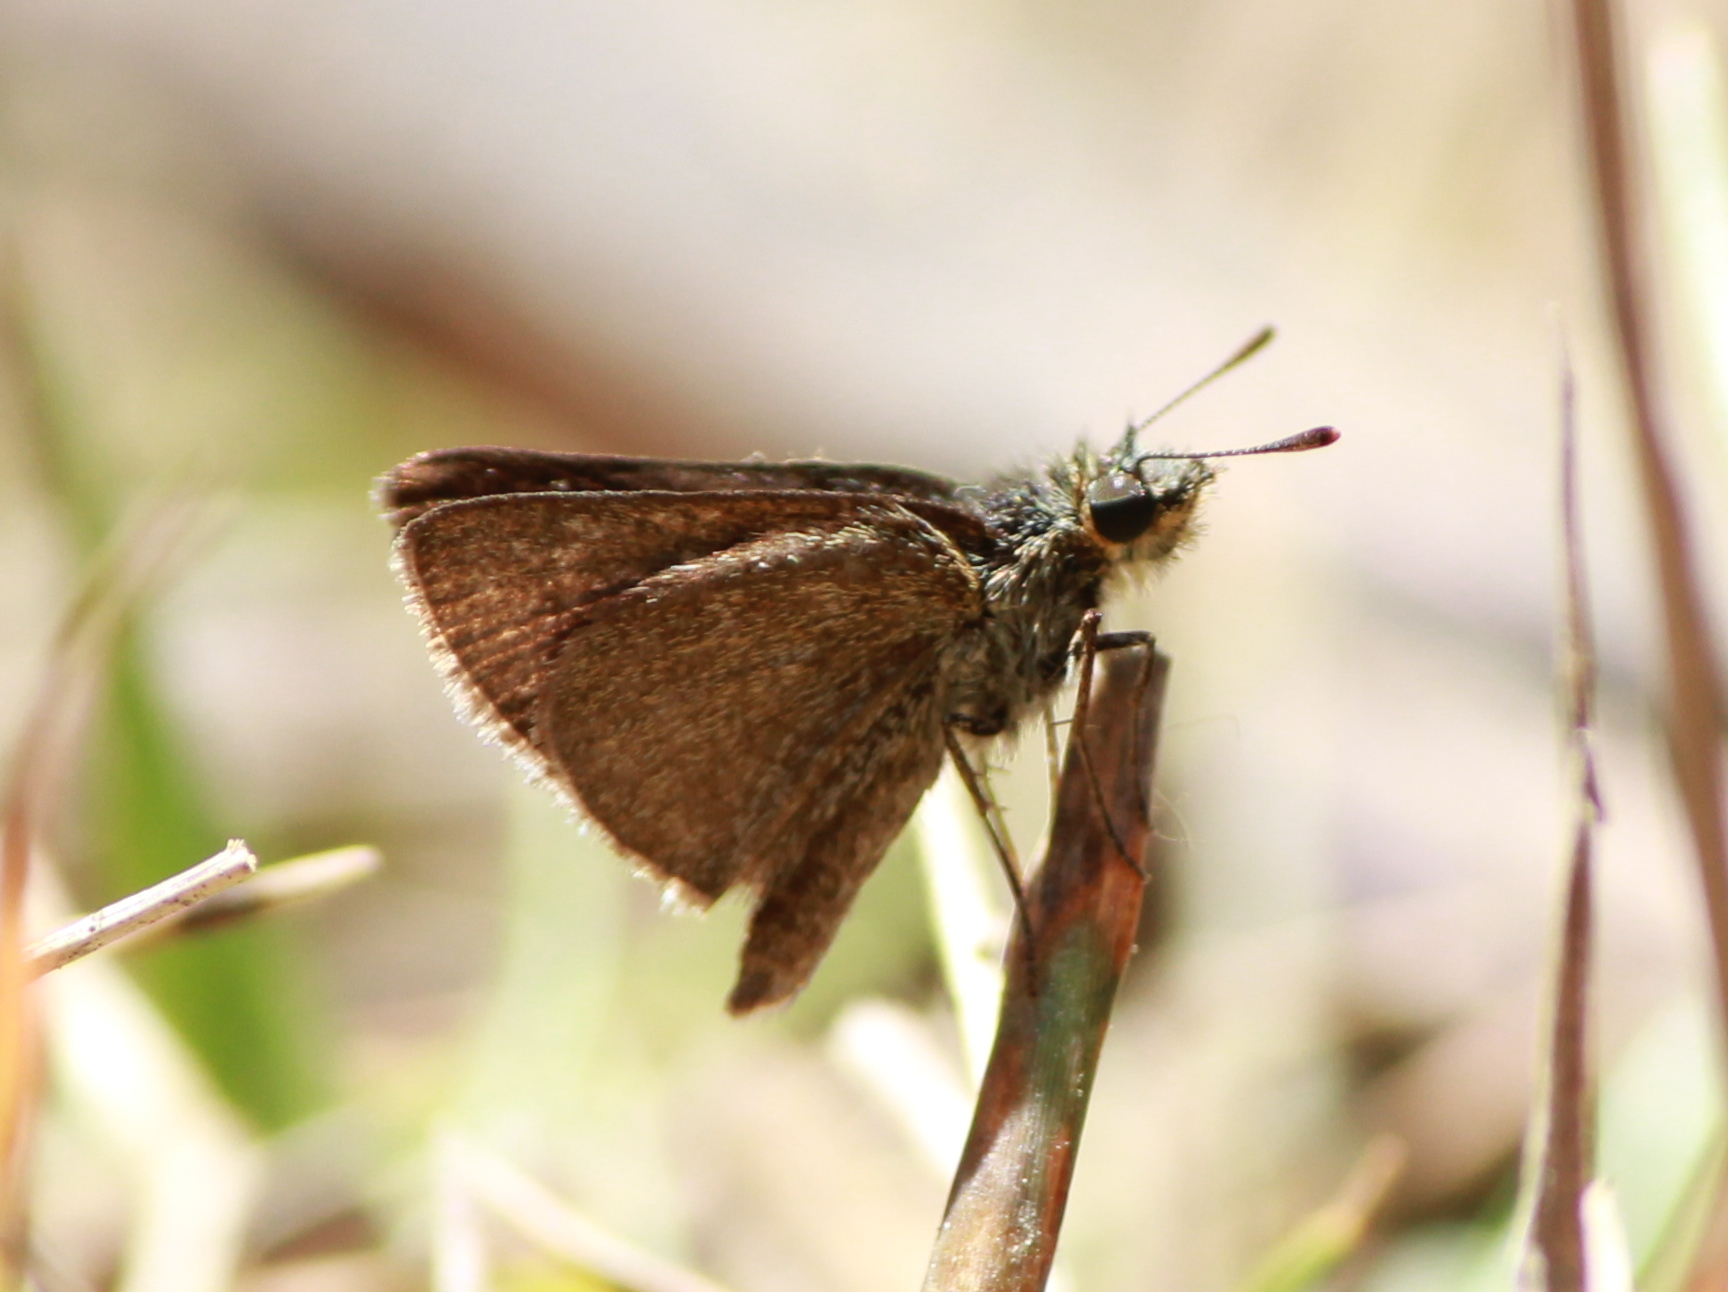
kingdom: Animalia
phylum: Arthropoda
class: Insecta
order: Lepidoptera
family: Hesperiidae
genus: Aeromachus
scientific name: Aeromachus pygmaeus
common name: Pygmy scrub hopper
